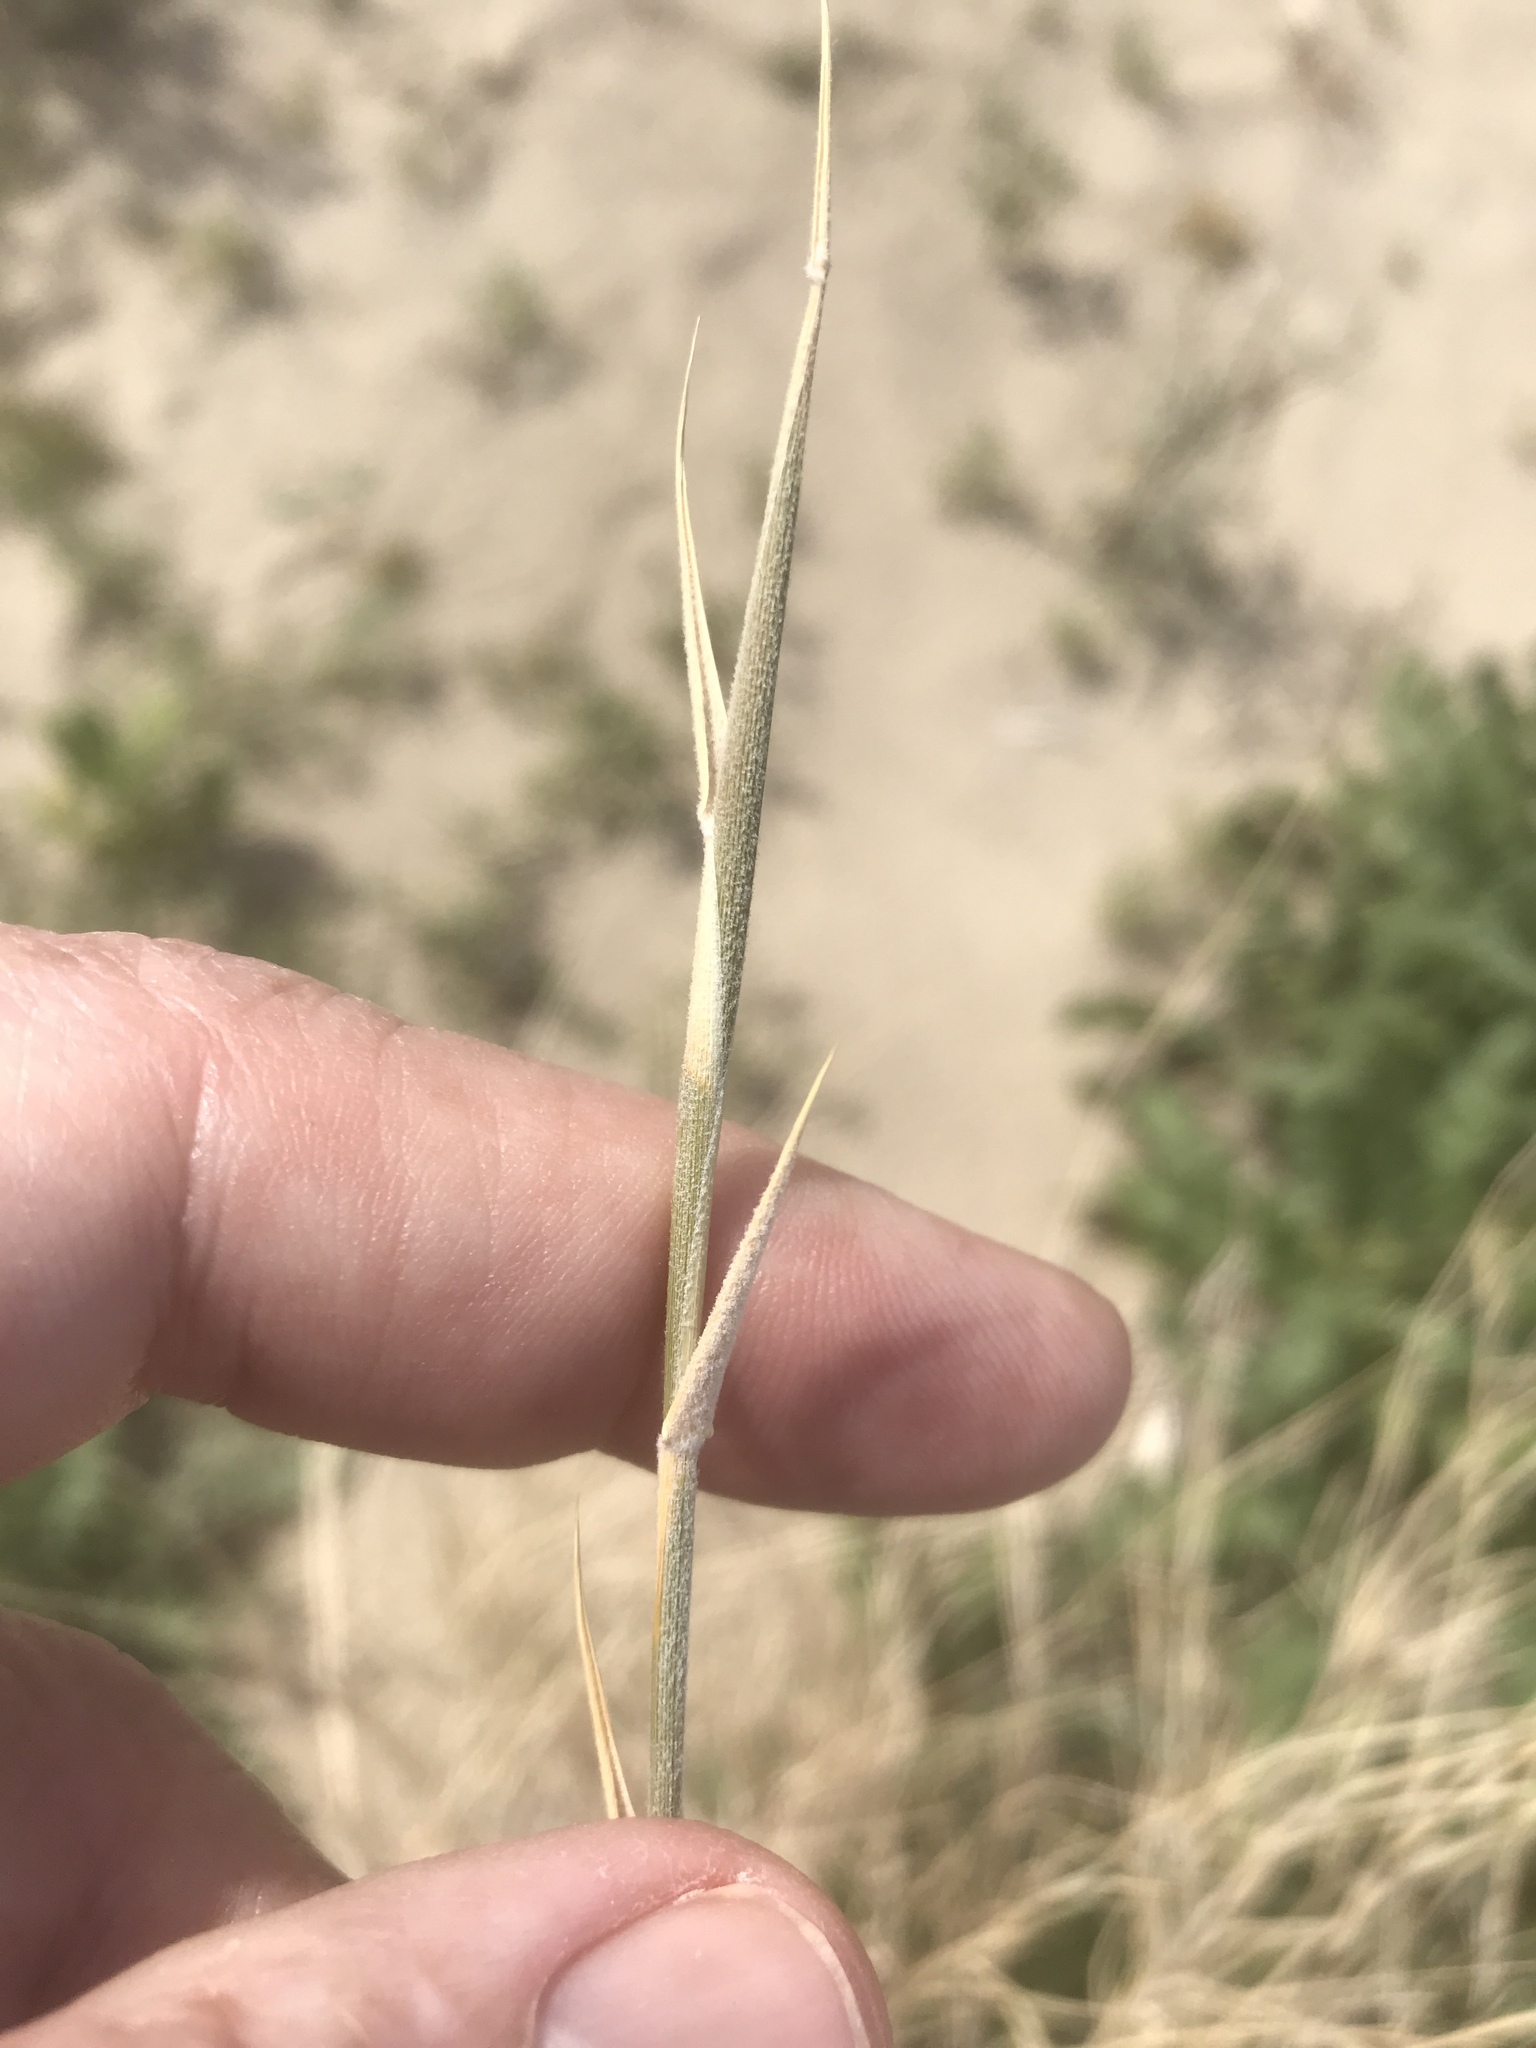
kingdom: Plantae
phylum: Tracheophyta
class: Liliopsida
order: Poales
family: Poaceae
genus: Hilaria
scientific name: Hilaria rigida
